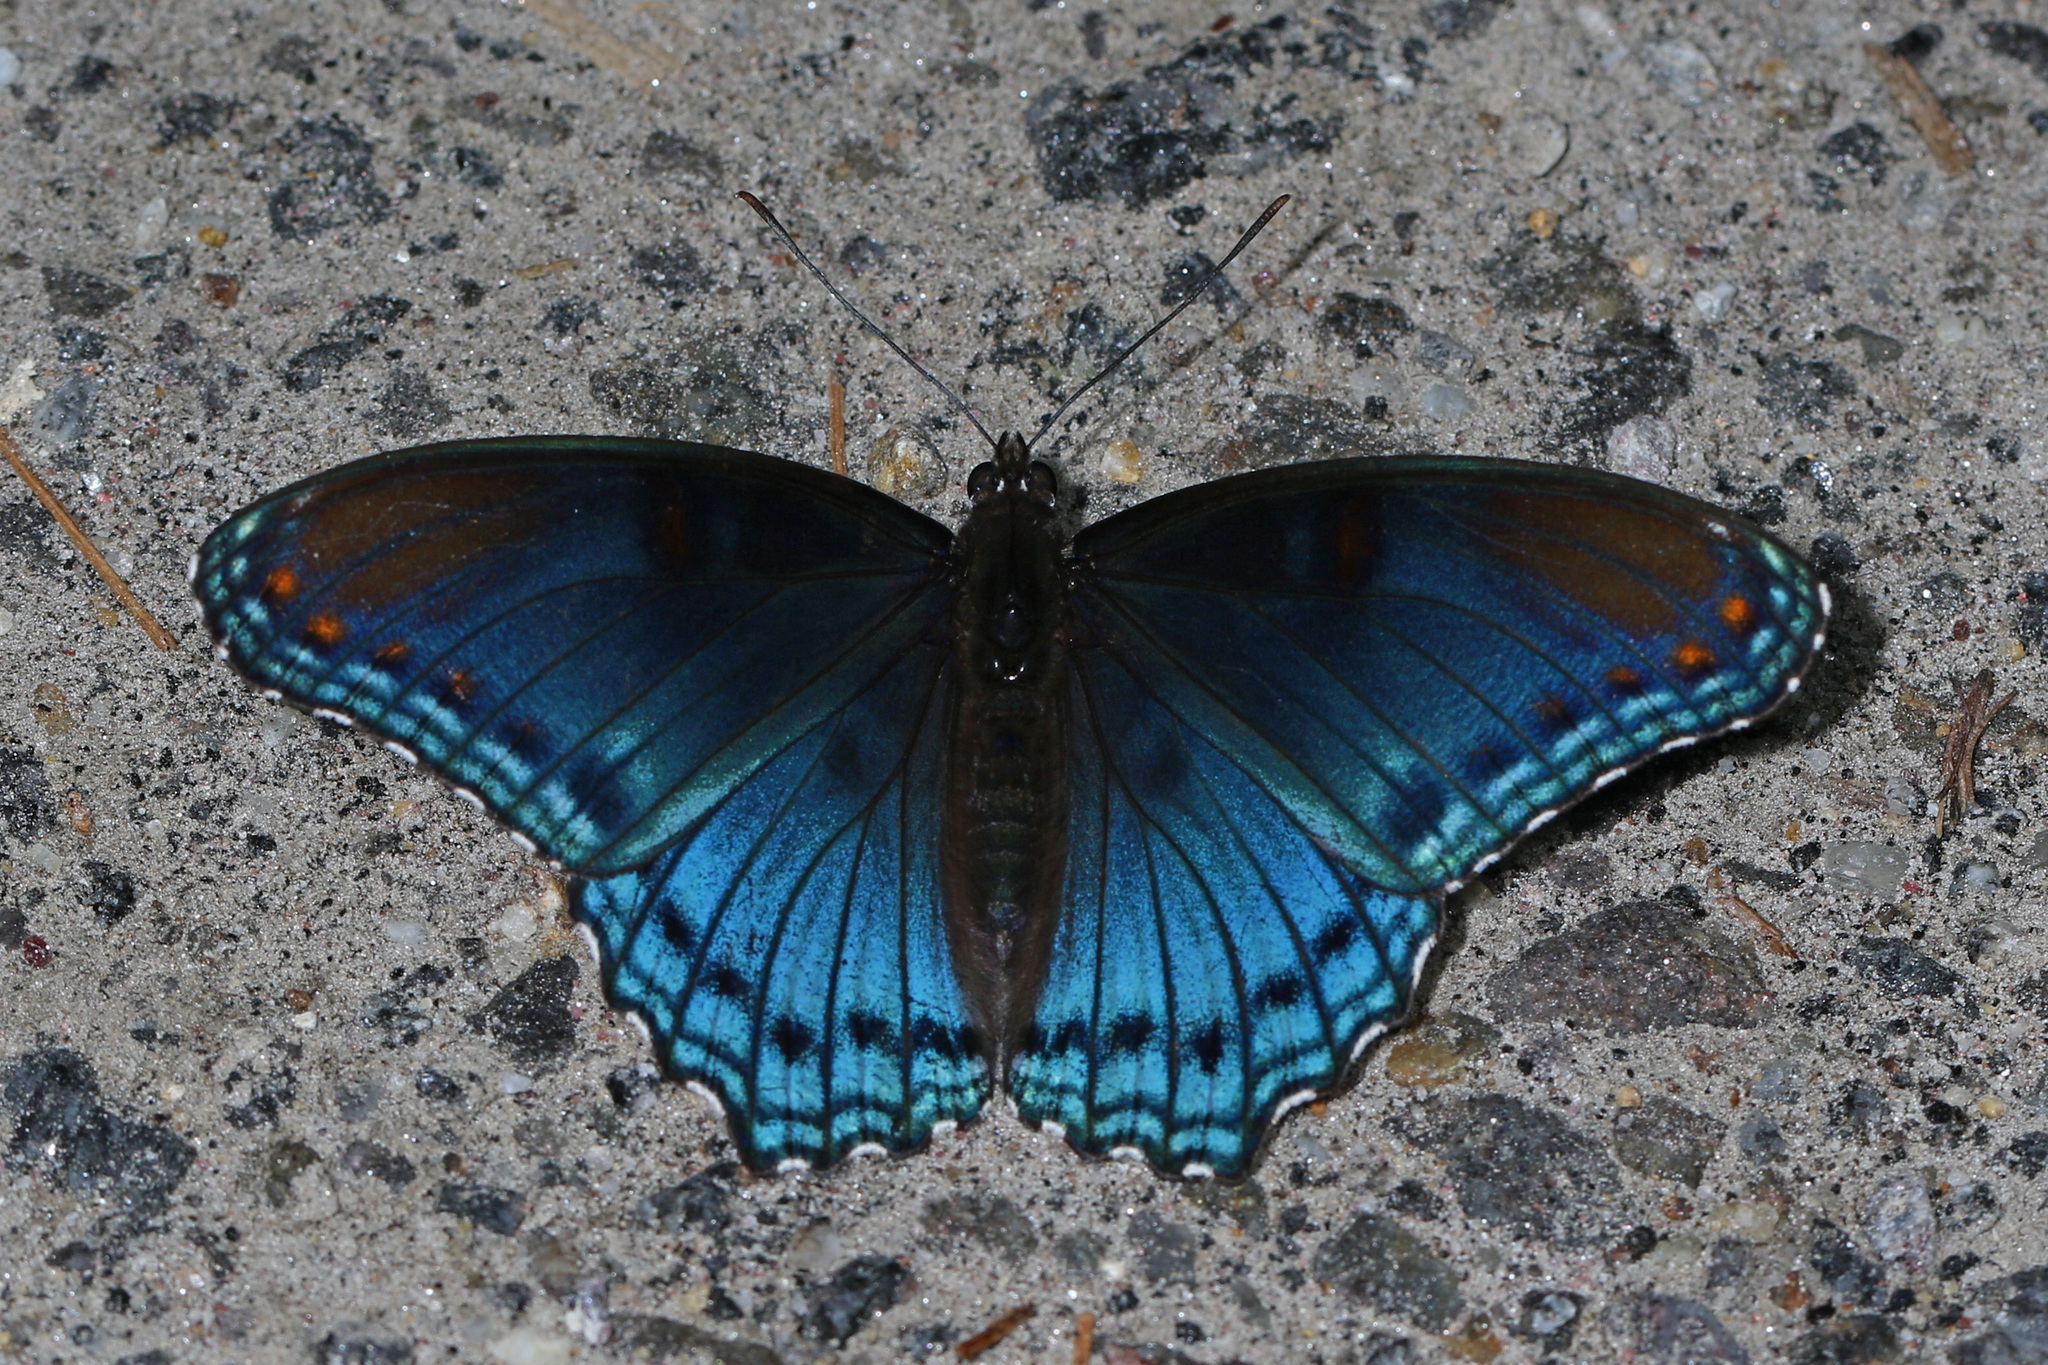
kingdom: Animalia
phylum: Arthropoda
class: Insecta
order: Lepidoptera
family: Nymphalidae
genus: Limenitis
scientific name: Limenitis astyanax
